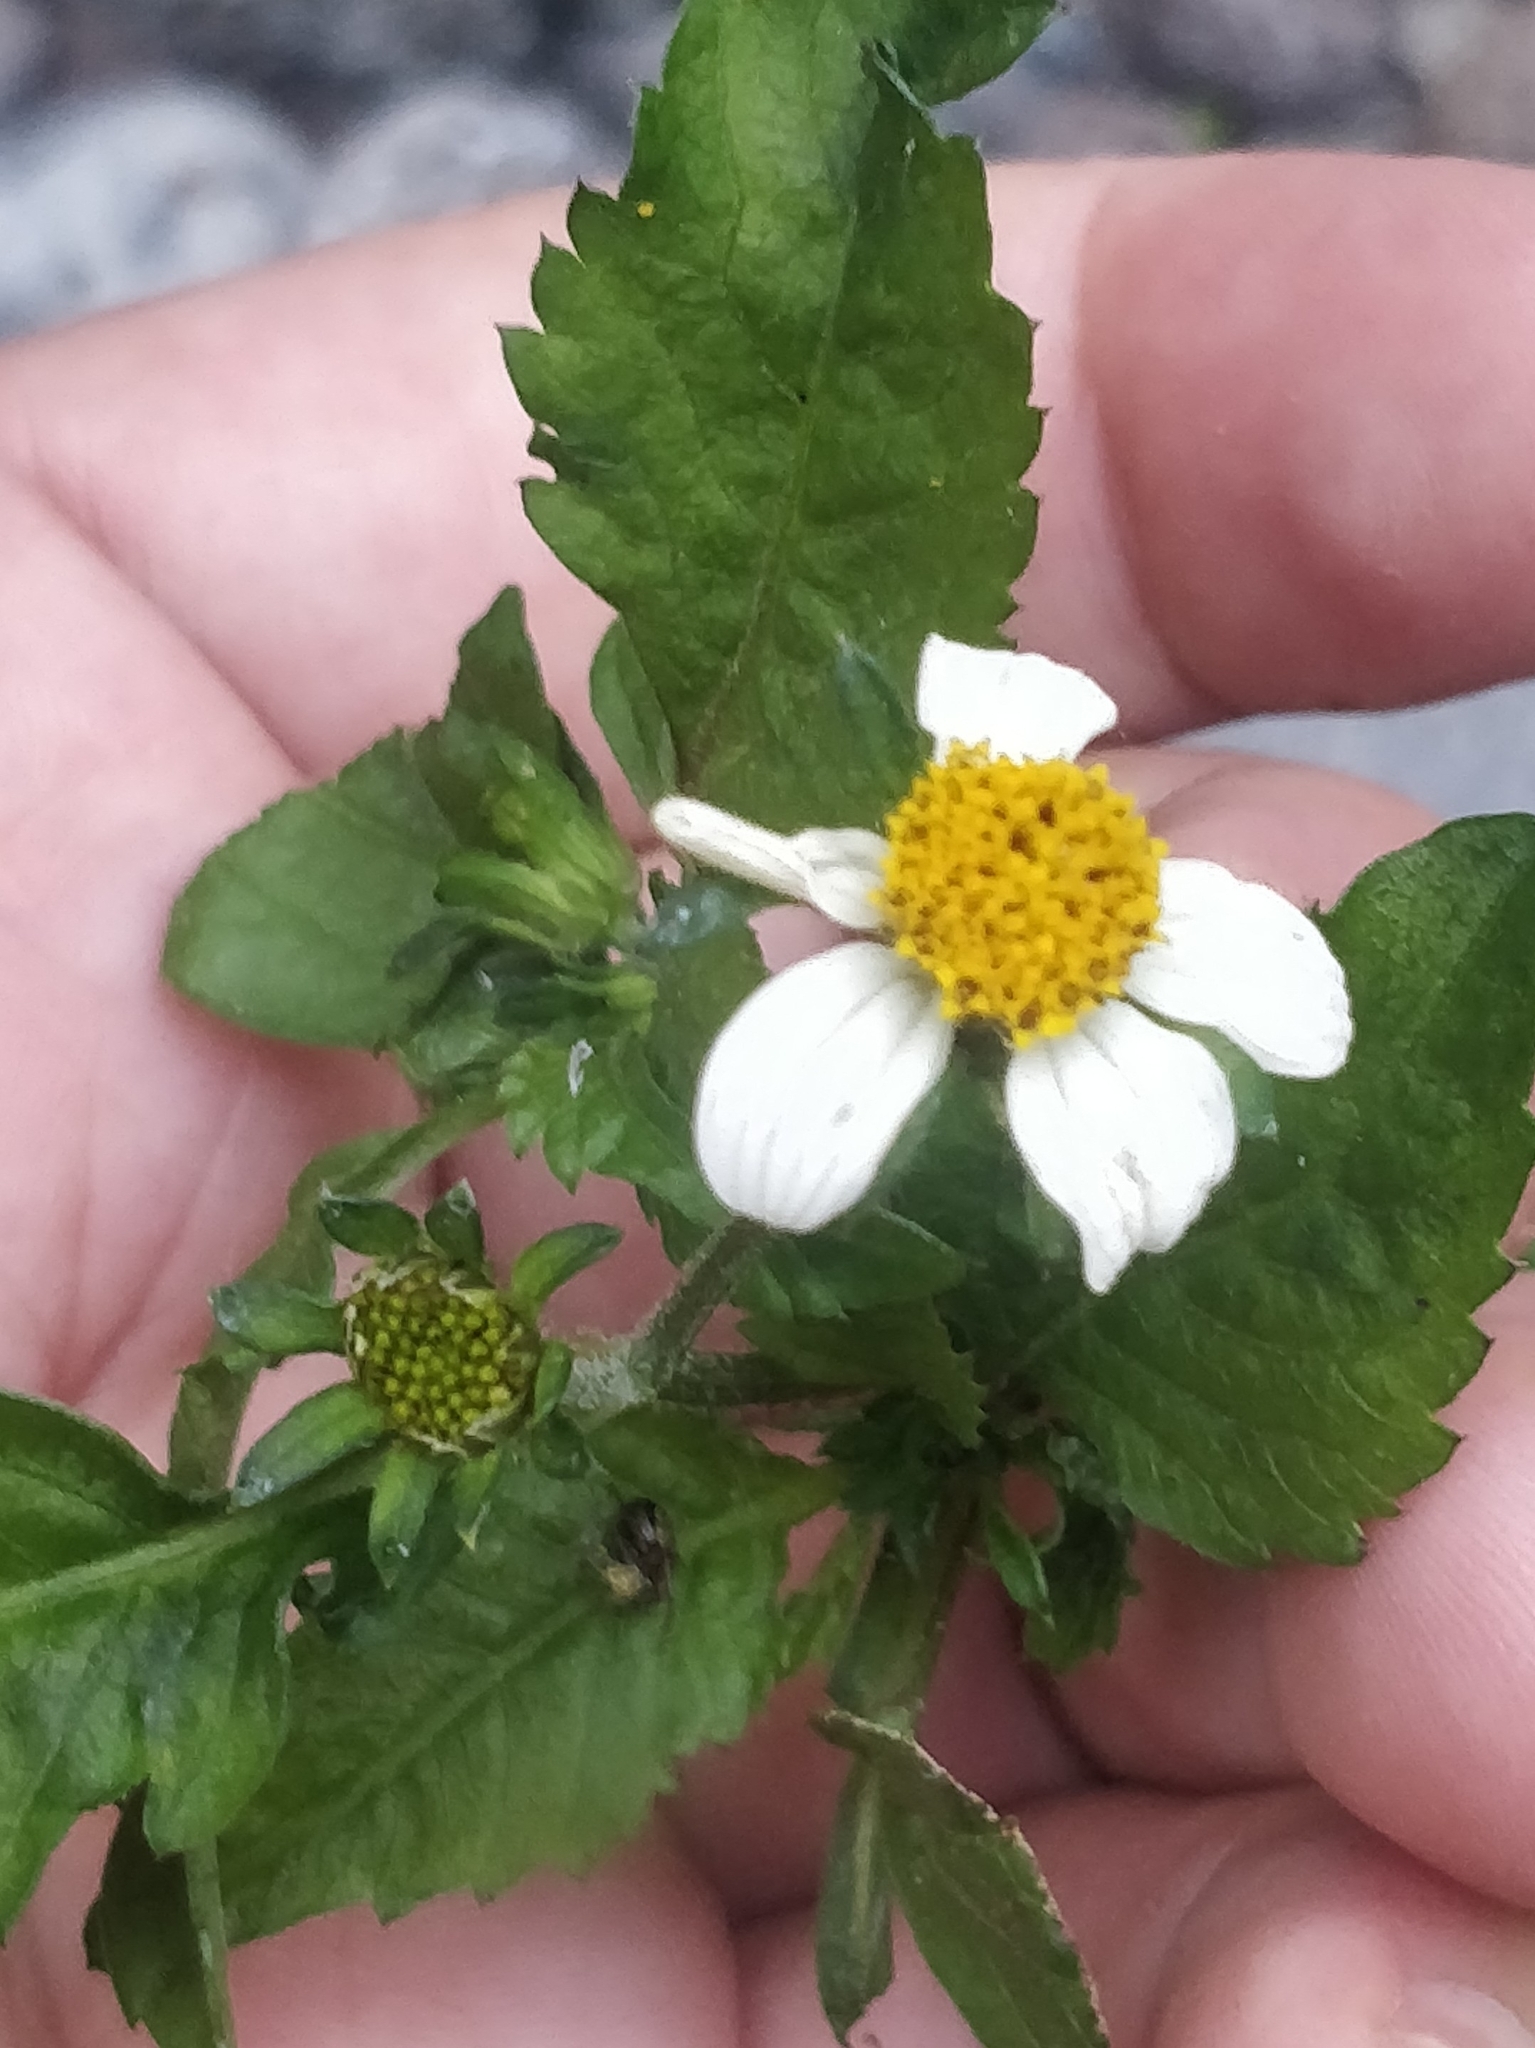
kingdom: Plantae
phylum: Tracheophyta
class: Magnoliopsida
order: Asterales
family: Asteraceae
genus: Bidens
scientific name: Bidens pilosa
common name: Black-jack
